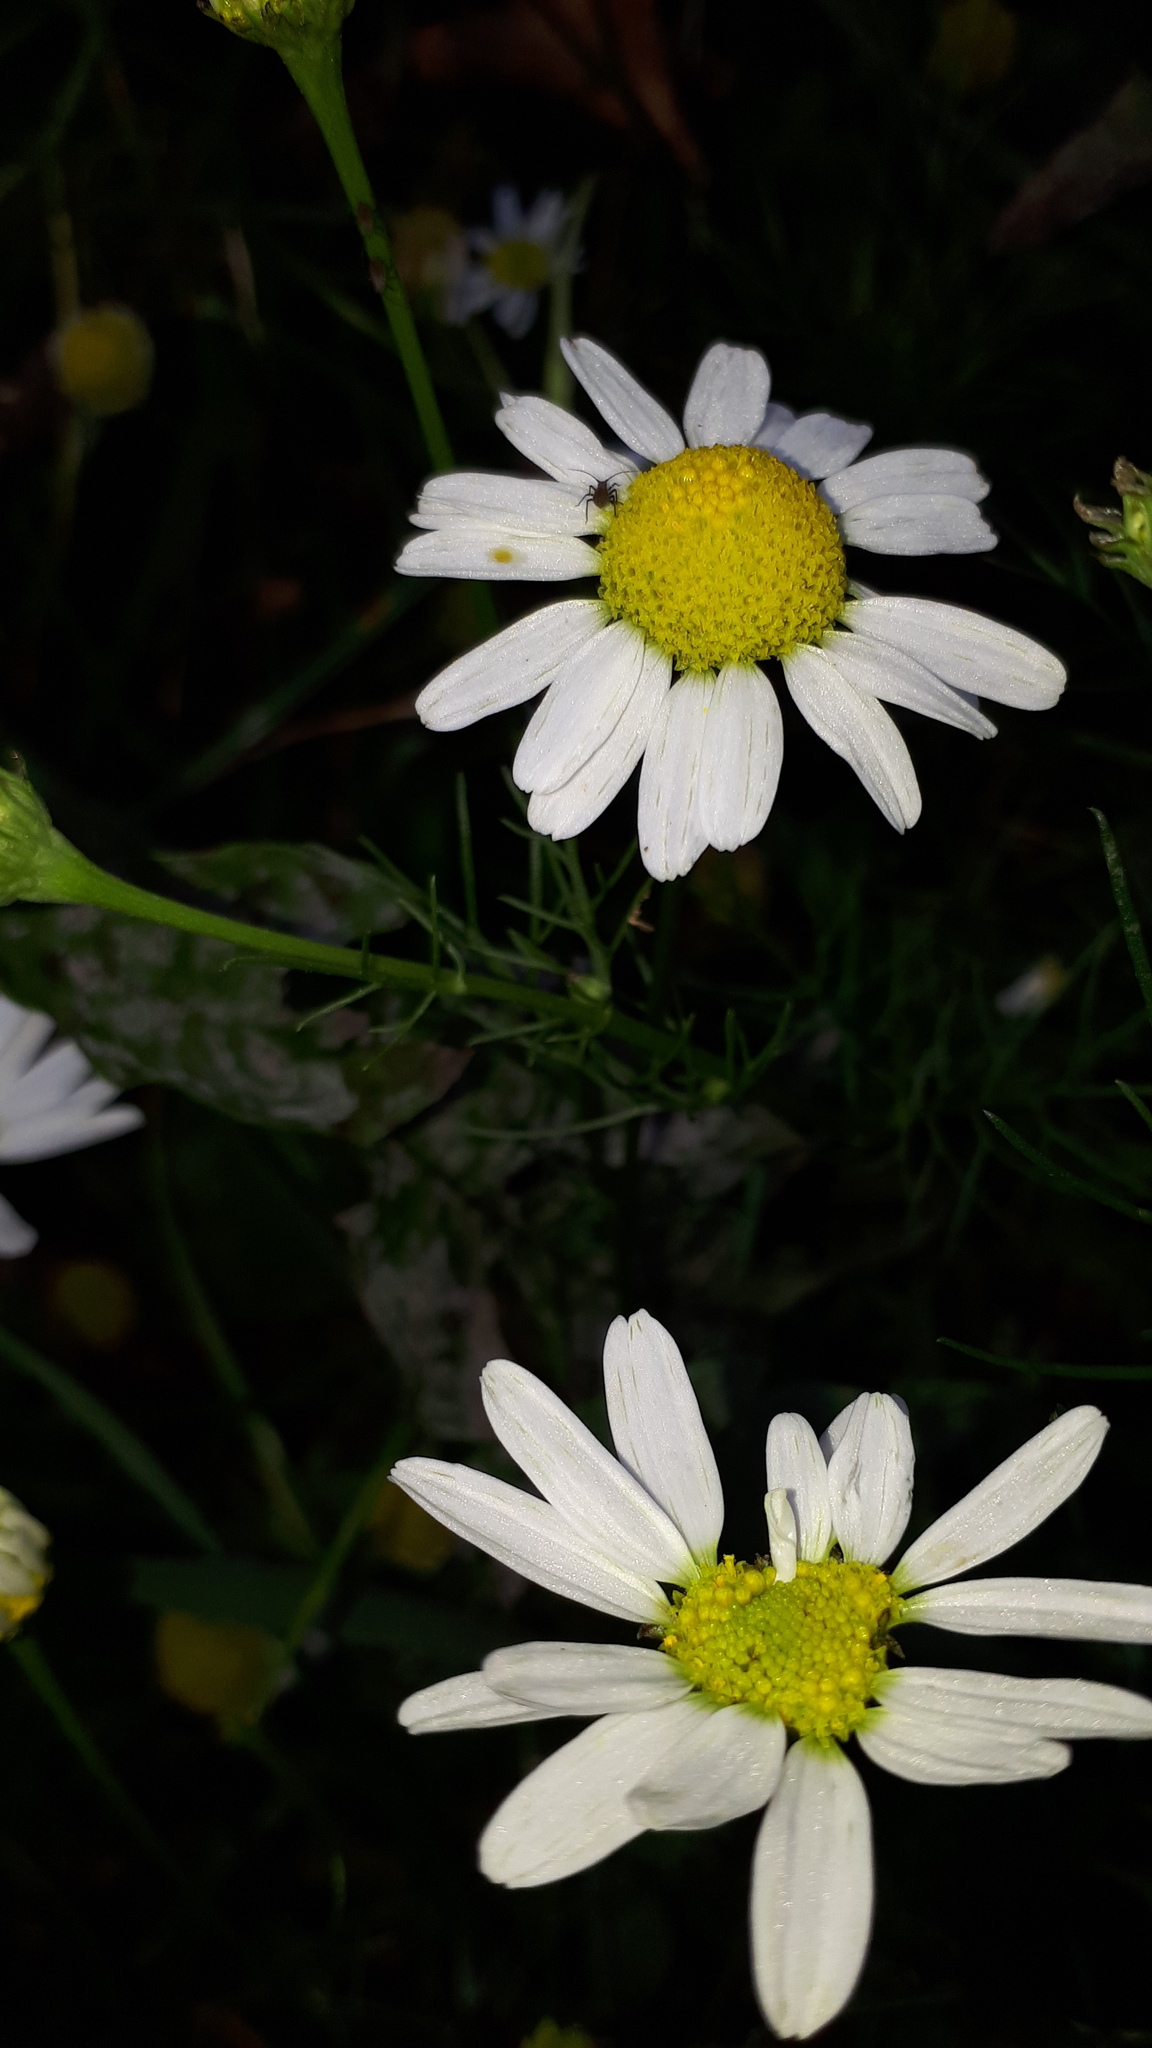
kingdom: Plantae
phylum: Tracheophyta
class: Magnoliopsida
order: Asterales
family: Asteraceae
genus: Tripleurospermum
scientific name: Tripleurospermum inodorum
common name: Scentless mayweed
